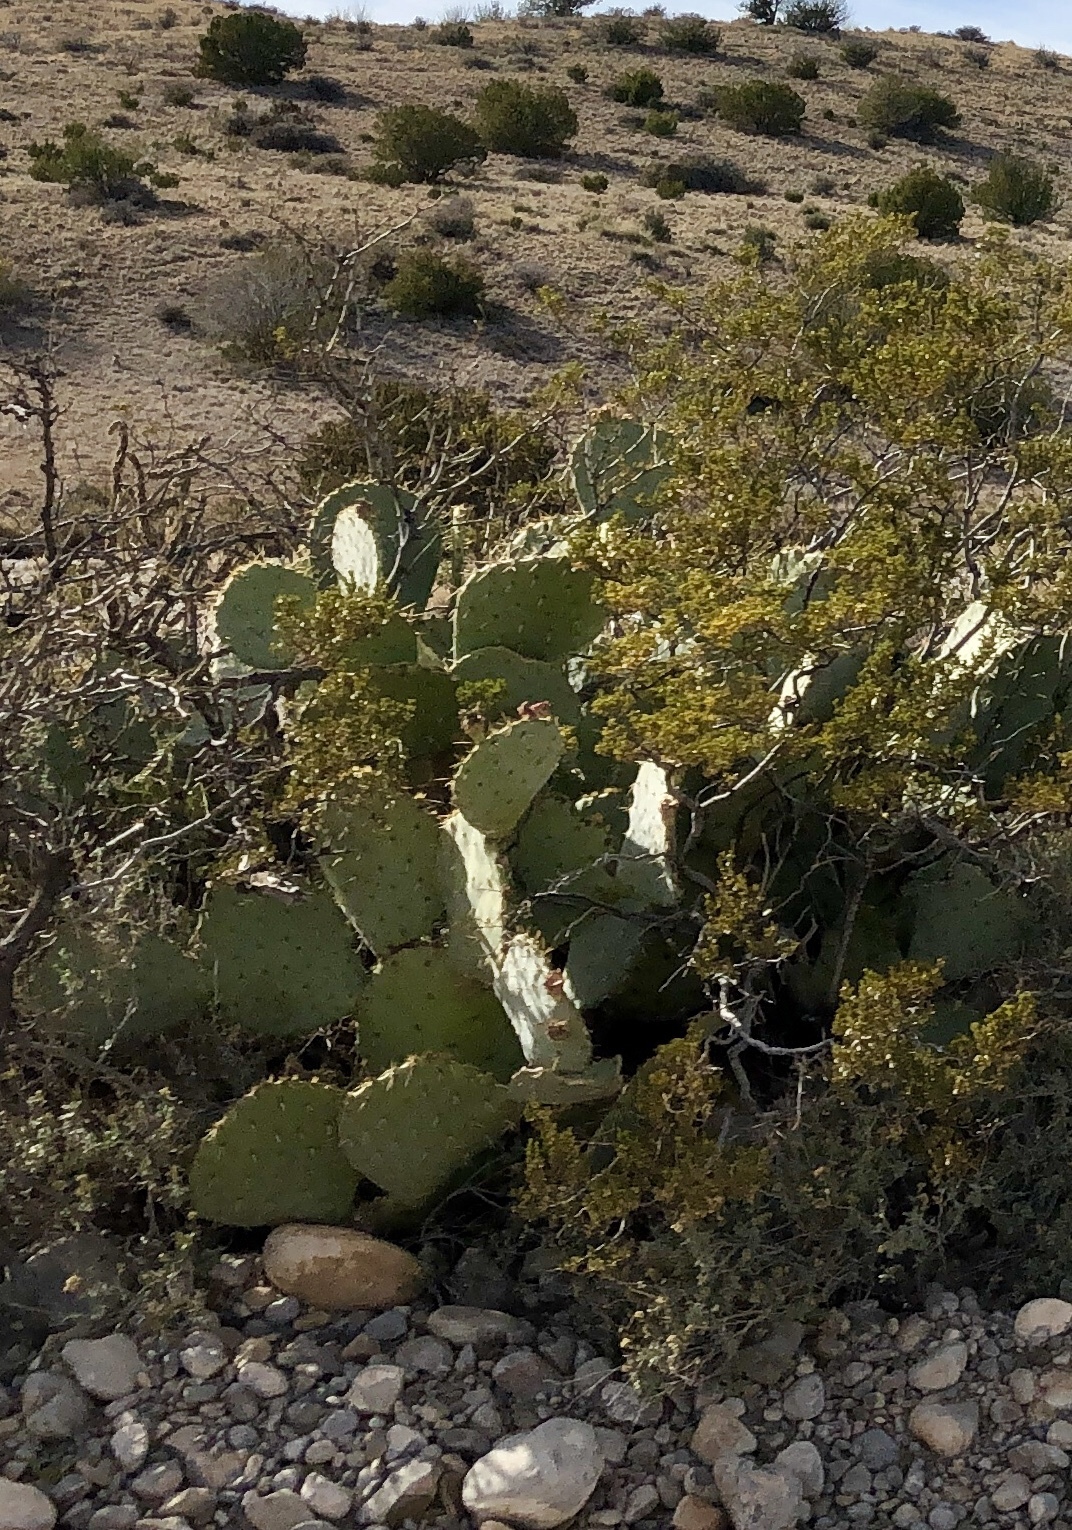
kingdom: Plantae
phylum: Tracheophyta
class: Magnoliopsida
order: Caryophyllales
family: Cactaceae
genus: Opuntia
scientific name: Opuntia orbiculata
